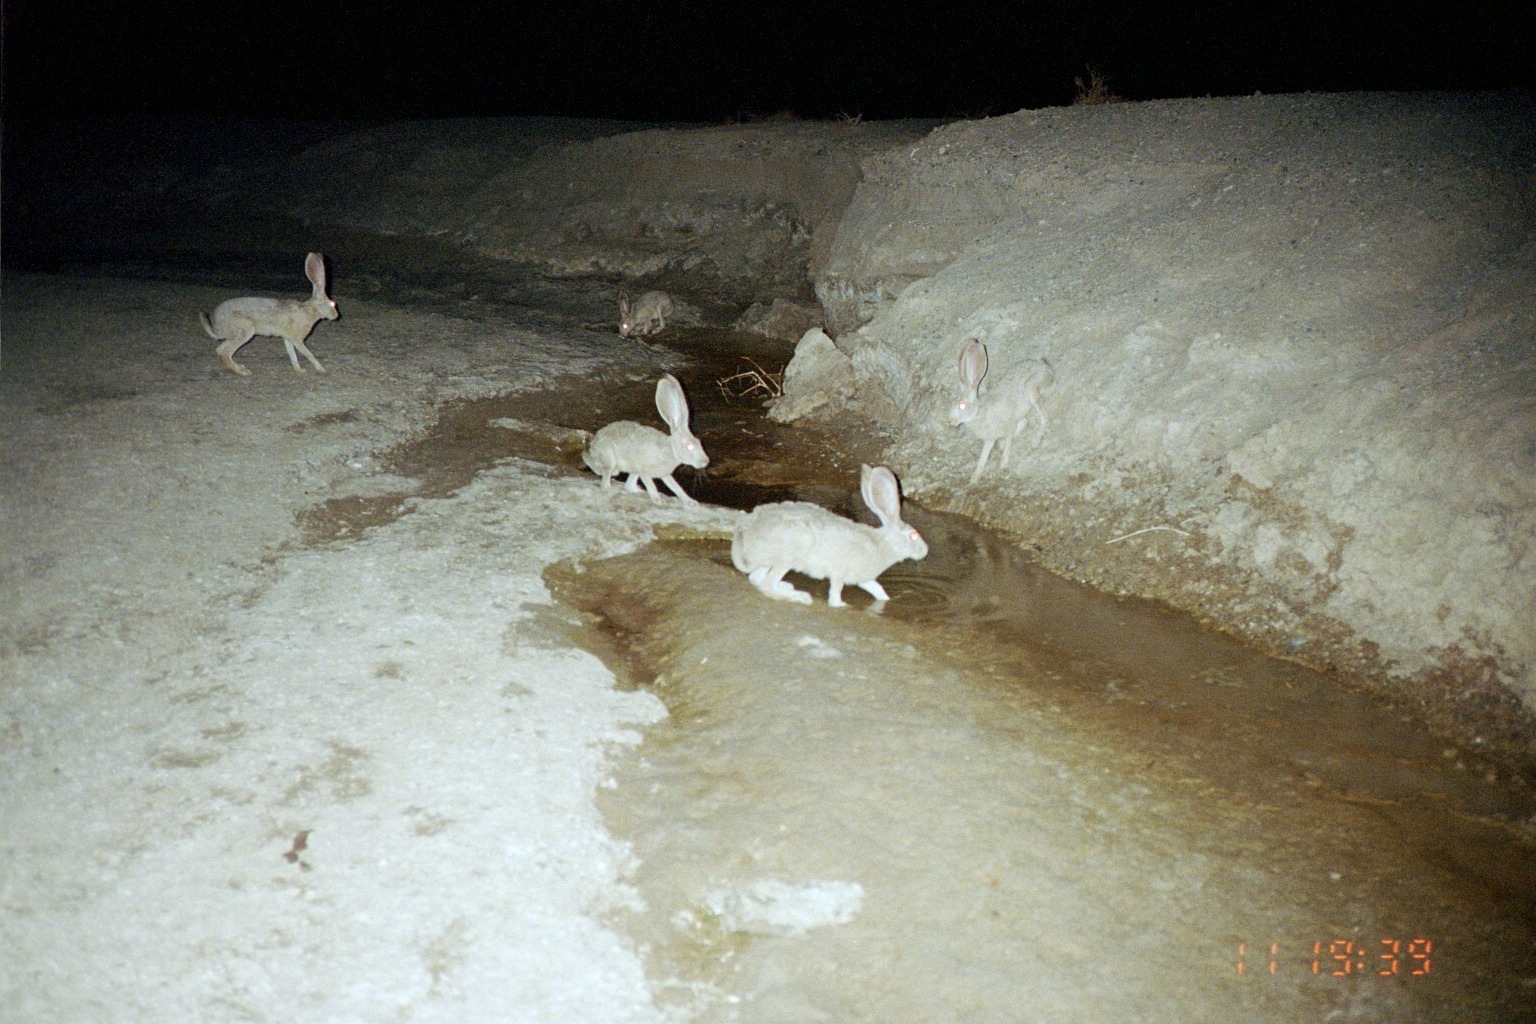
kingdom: Animalia
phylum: Chordata
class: Mammalia
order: Lagomorpha
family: Leporidae
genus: Lepus
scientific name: Lepus californicus
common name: Black-tailed jackrabbit
